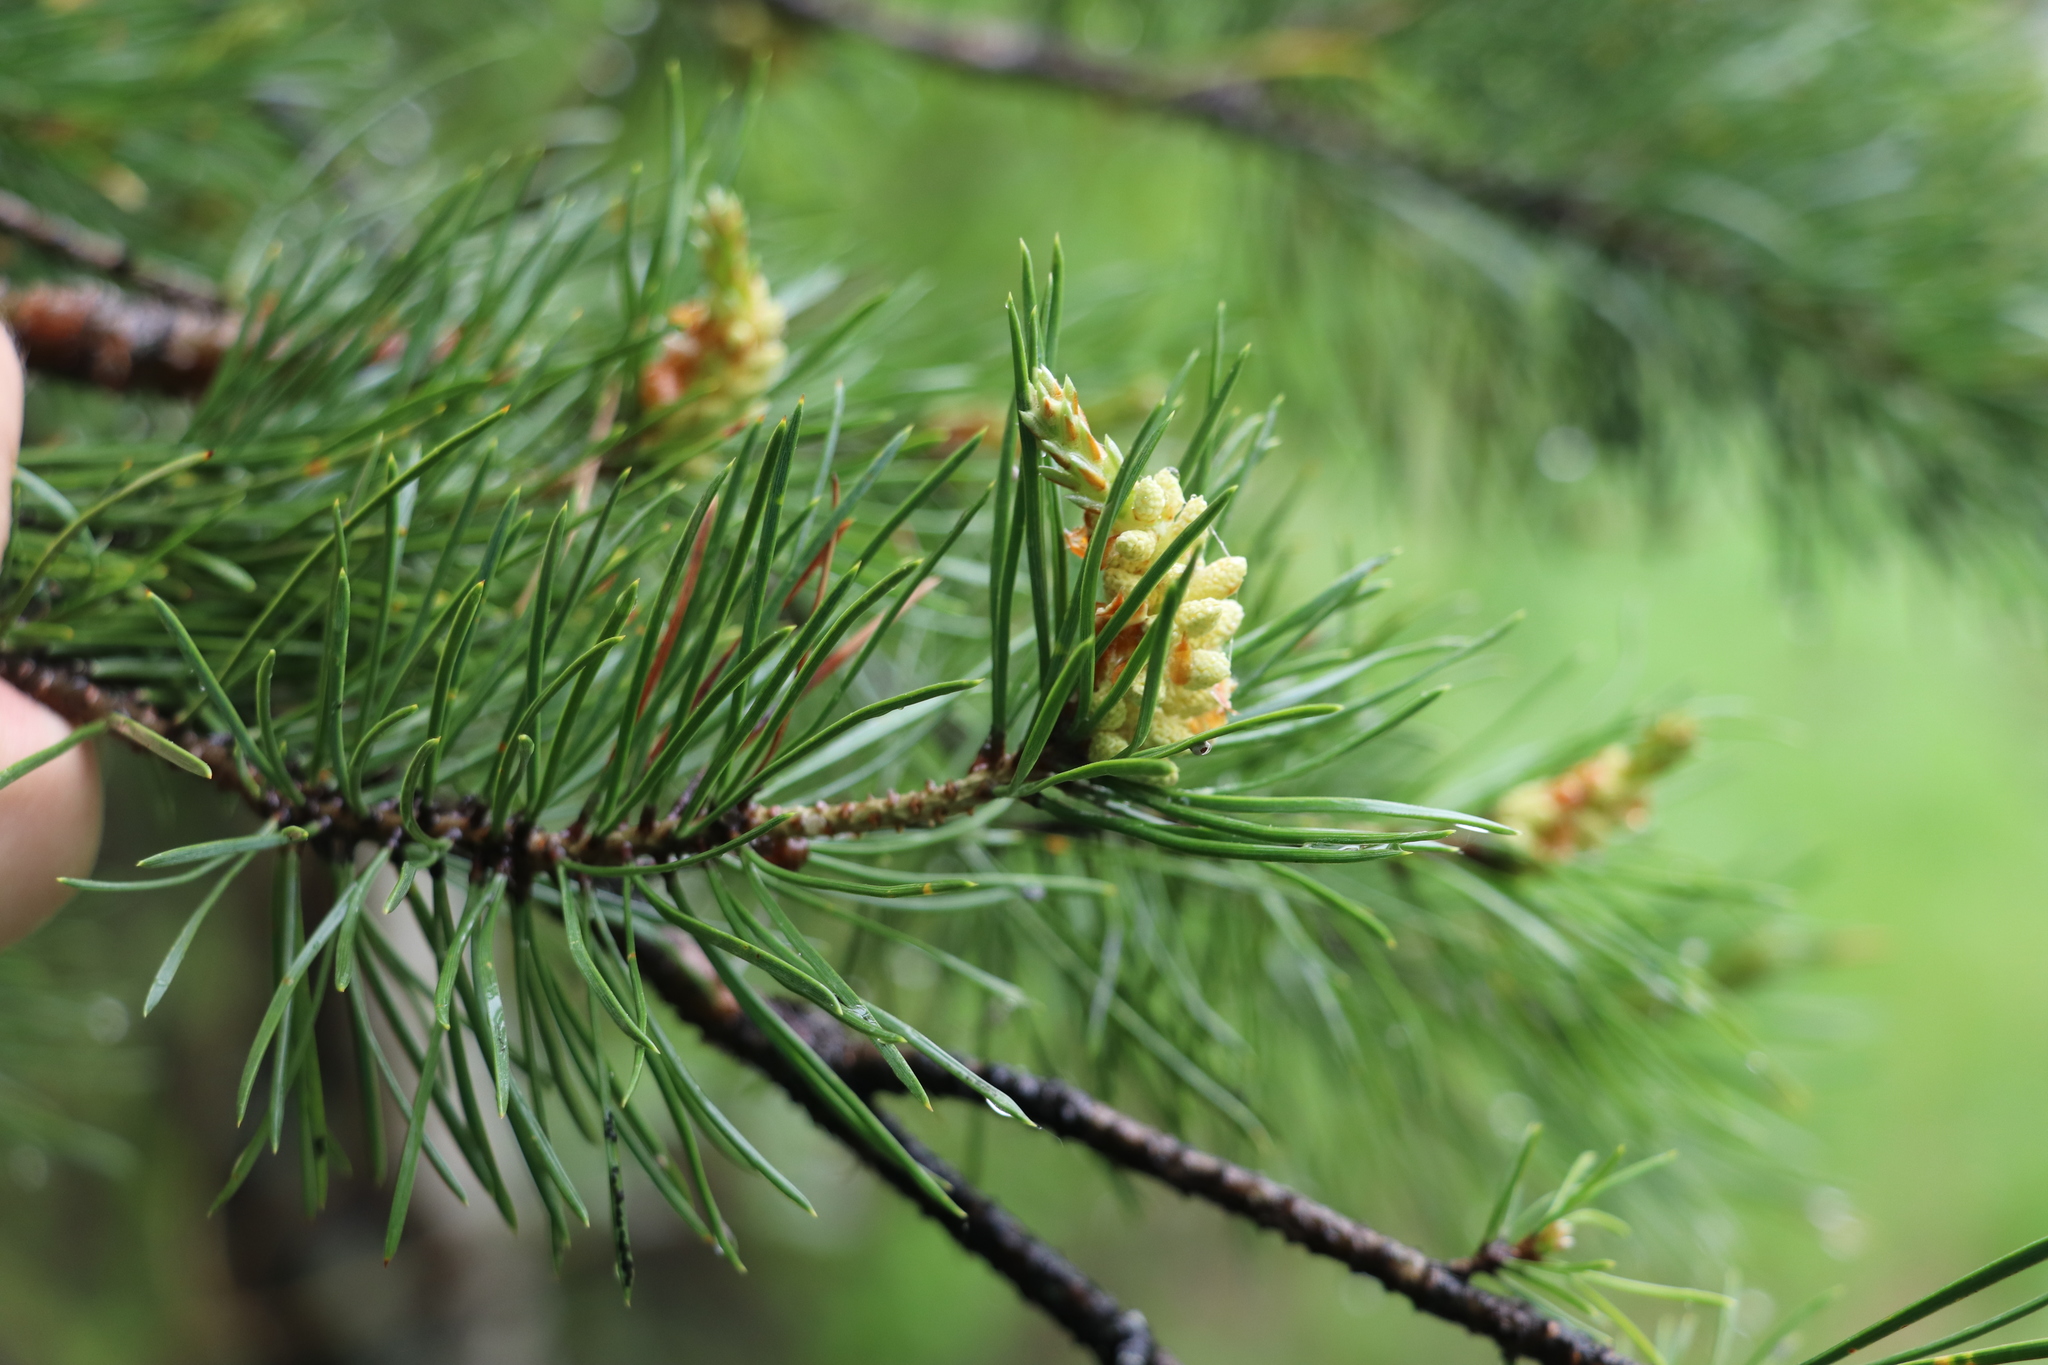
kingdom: Plantae
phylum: Tracheophyta
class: Pinopsida
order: Pinales
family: Pinaceae
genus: Pinus
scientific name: Pinus sylvestris
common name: Scots pine
